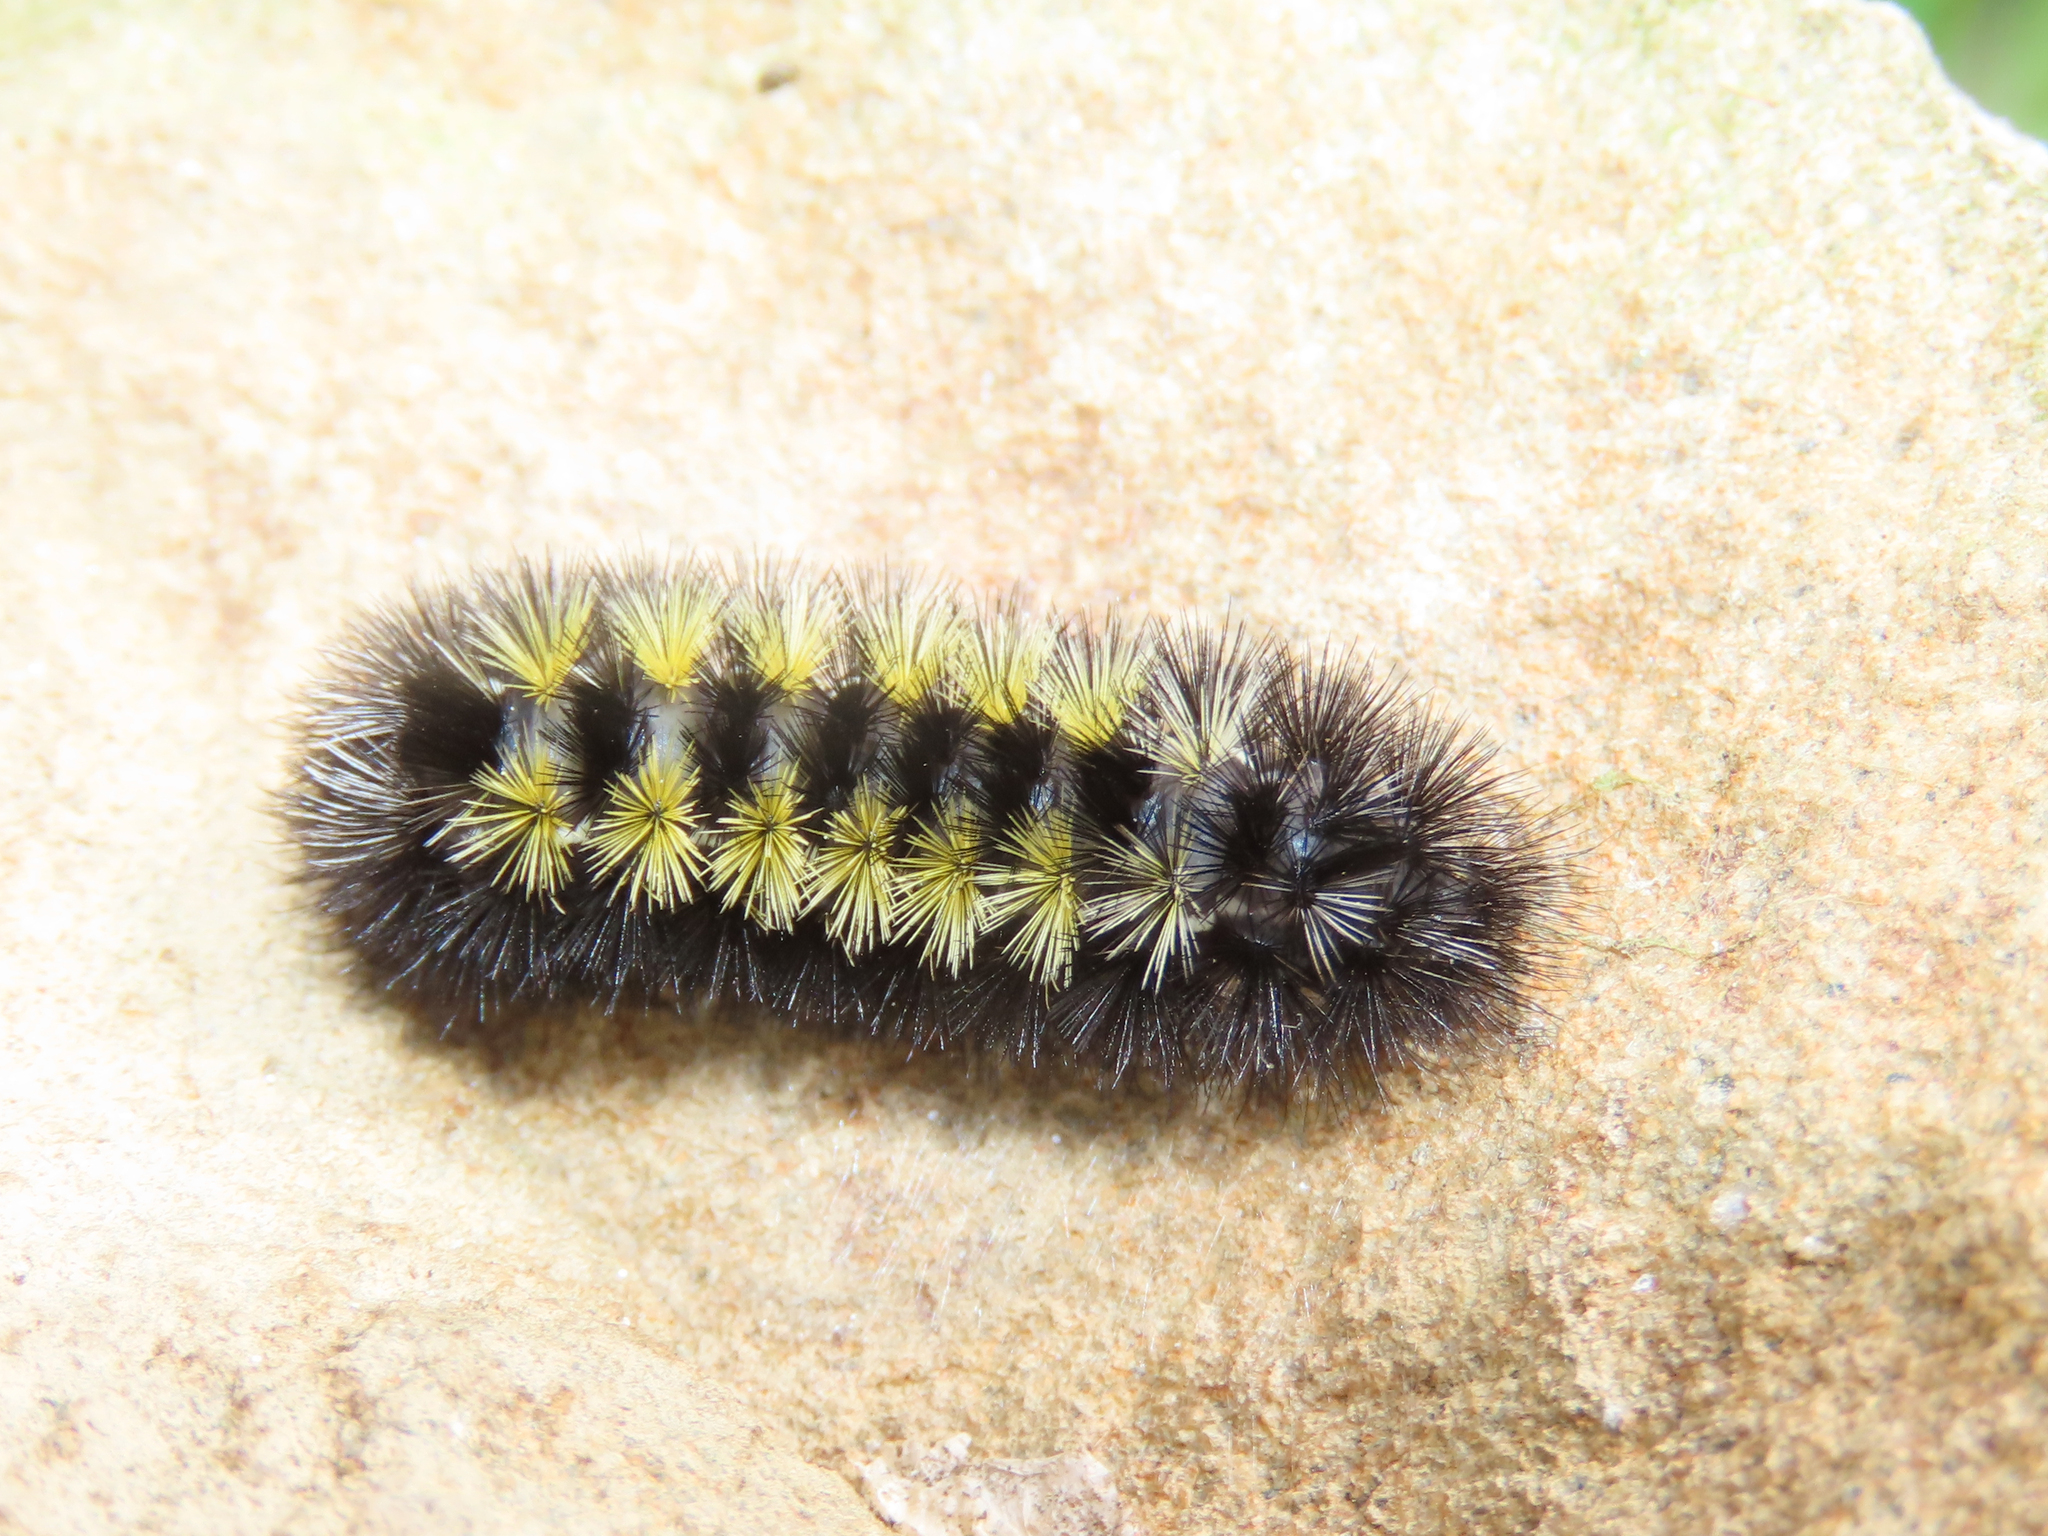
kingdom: Animalia
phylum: Arthropoda
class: Insecta
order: Lepidoptera
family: Erebidae
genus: Ctenucha
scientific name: Ctenucha virginica
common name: Virginia ctenucha moth
